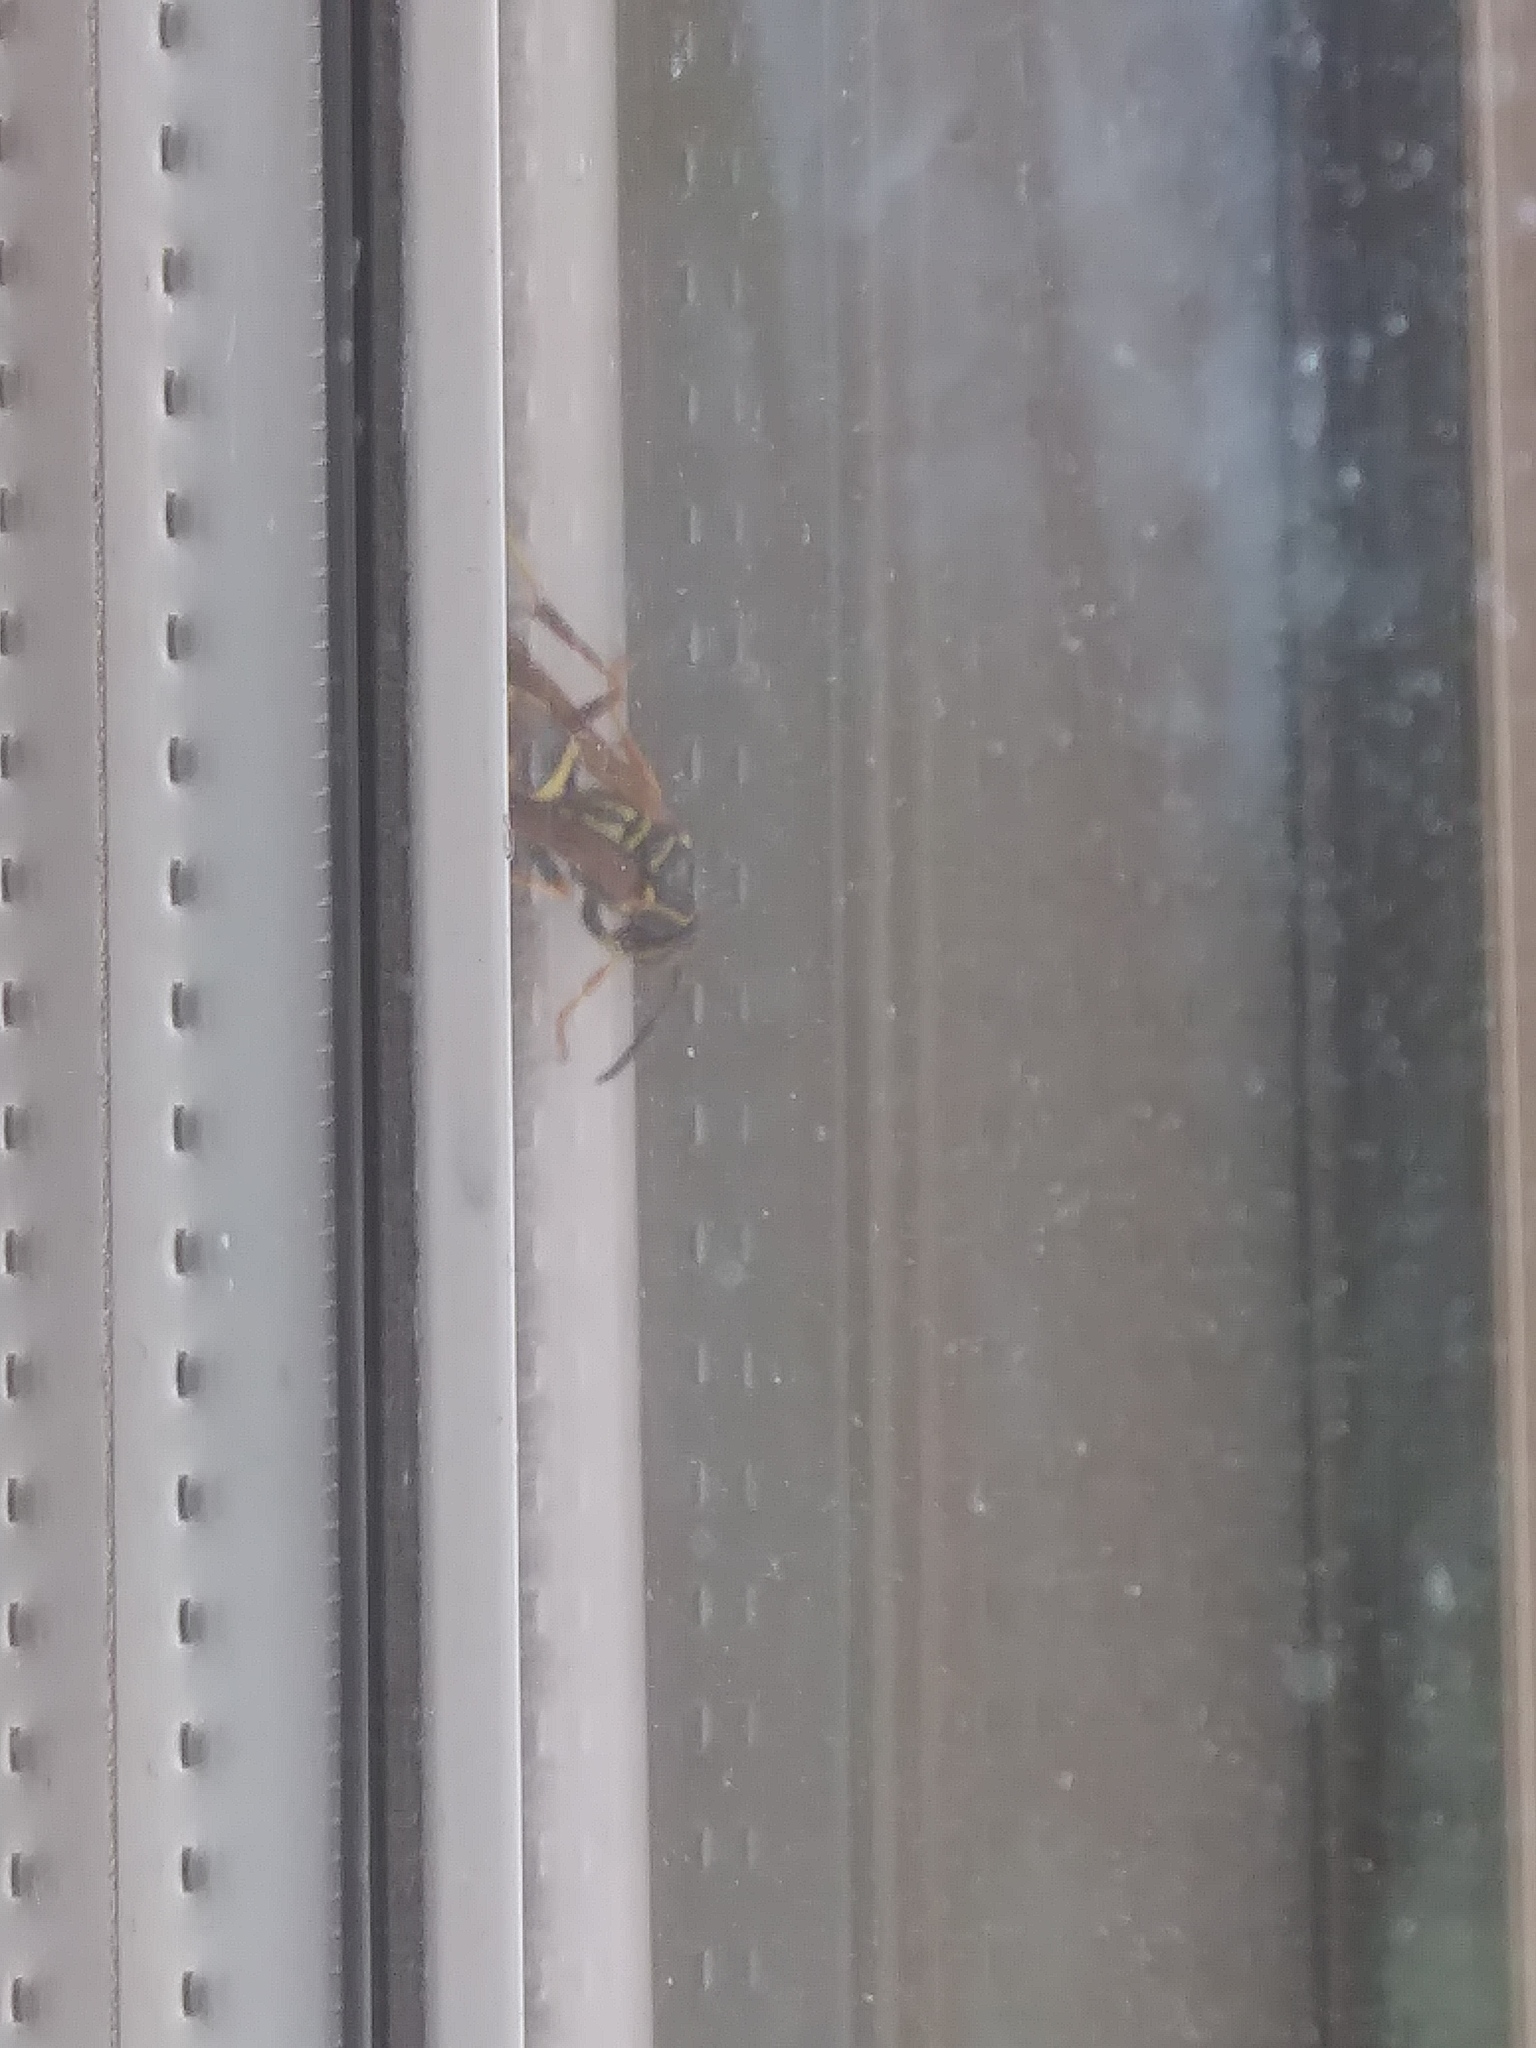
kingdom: Animalia
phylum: Arthropoda
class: Insecta
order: Hymenoptera
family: Eumenidae
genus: Polistes
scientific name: Polistes
